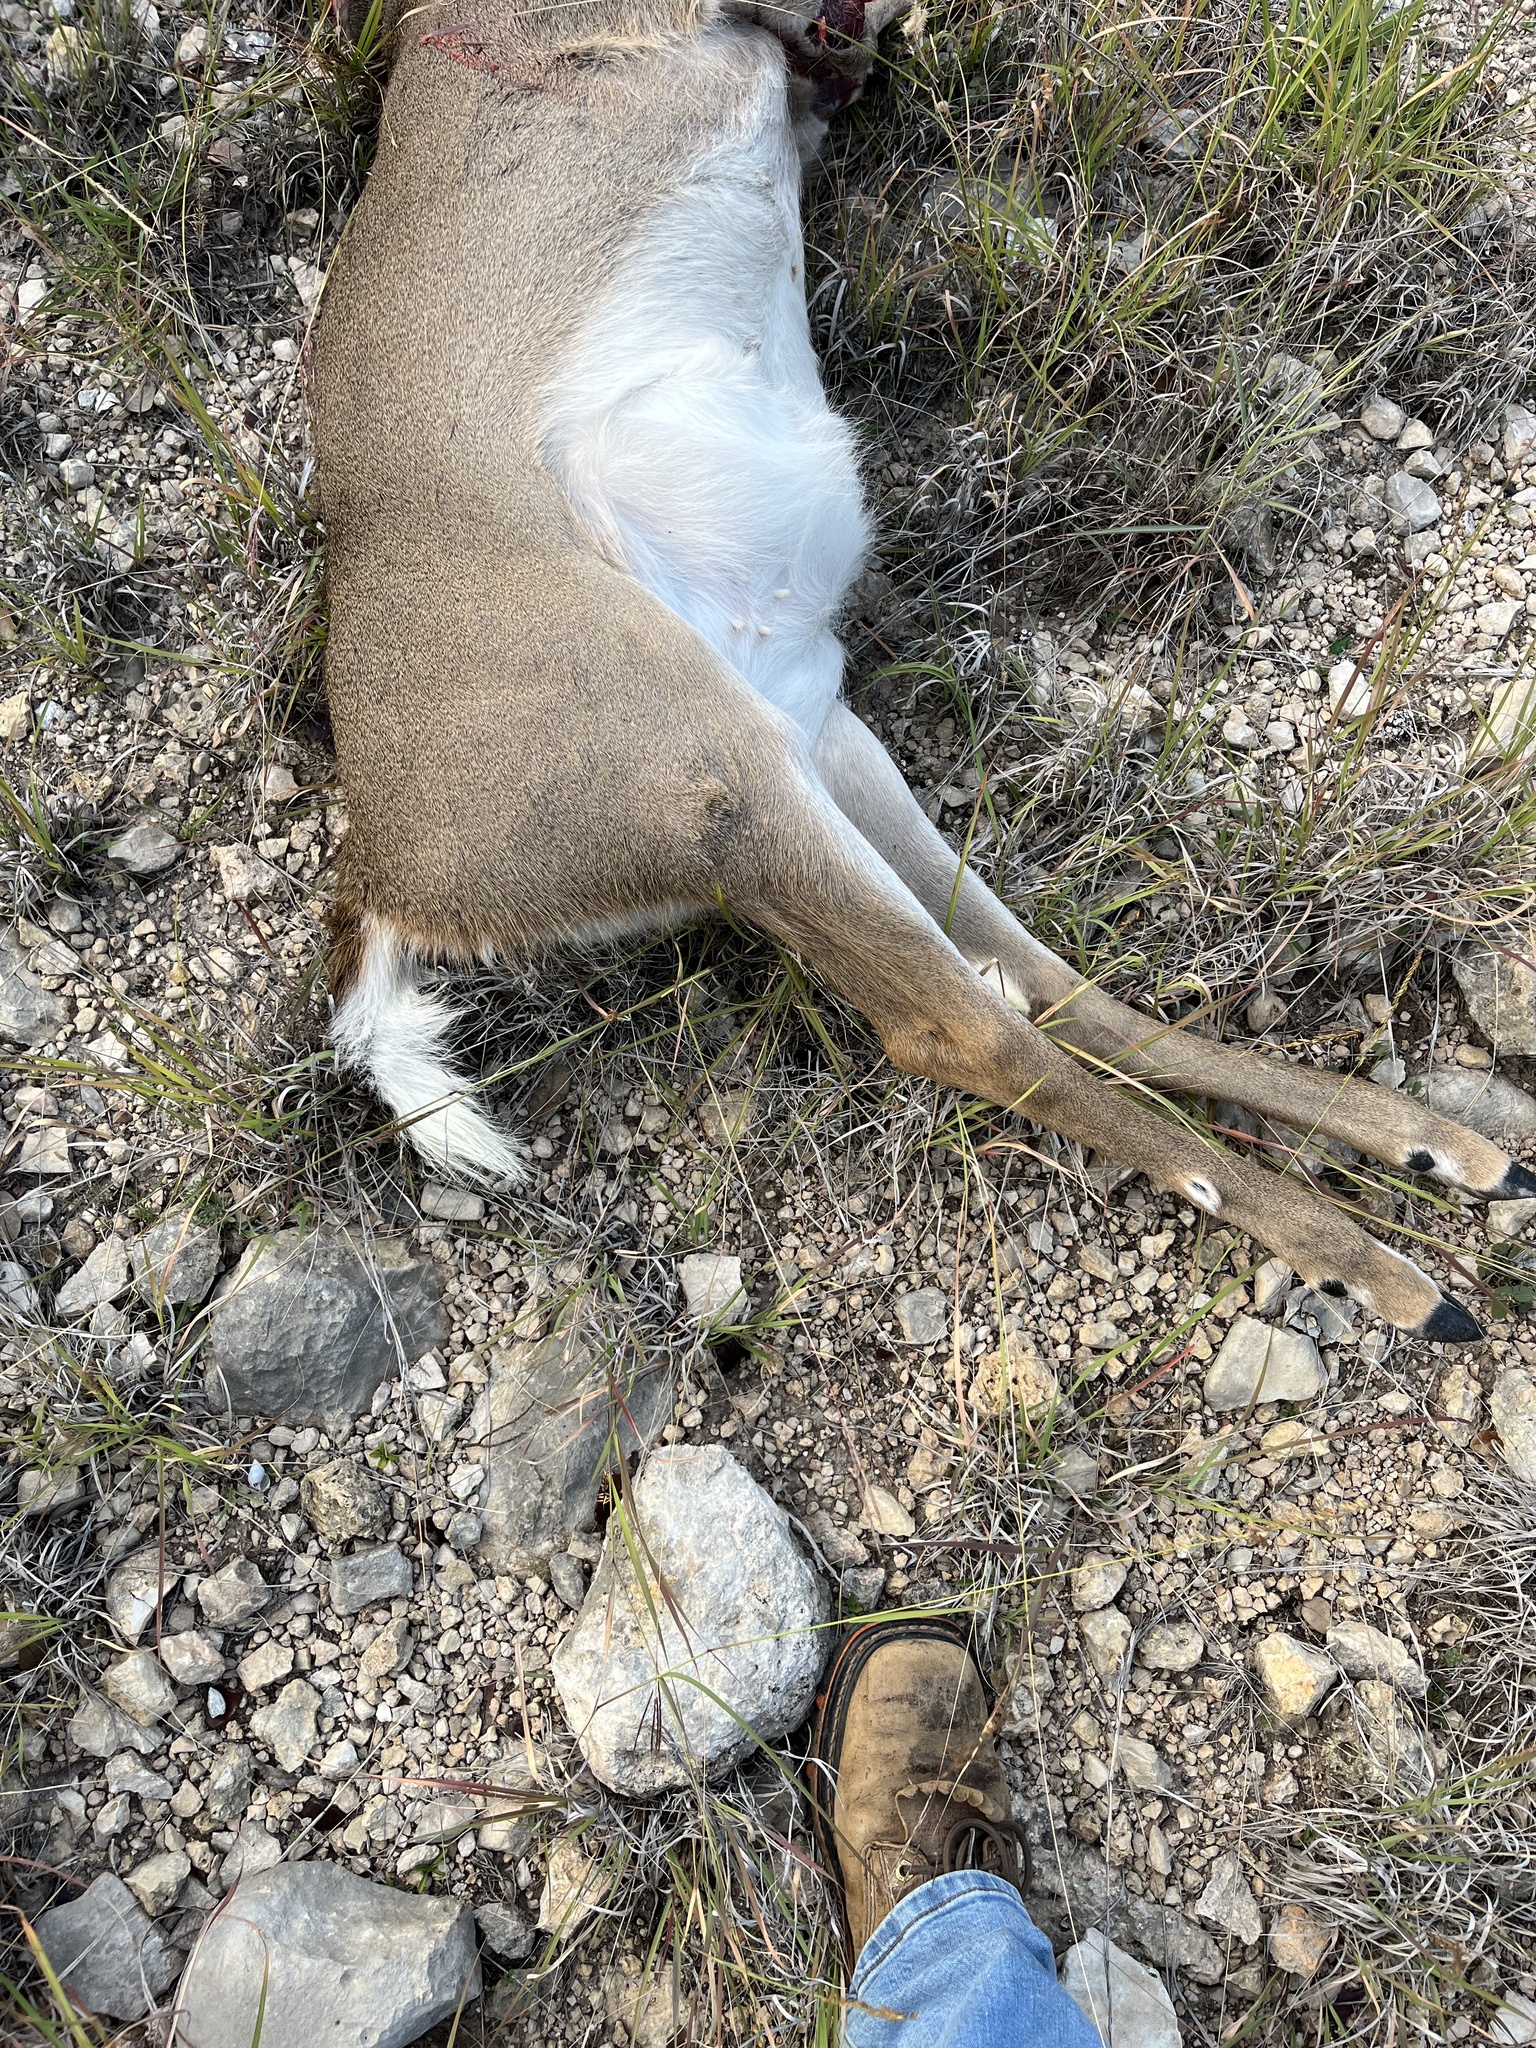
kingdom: Animalia
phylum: Chordata
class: Mammalia
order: Artiodactyla
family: Cervidae
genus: Odocoileus
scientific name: Odocoileus virginianus
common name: White-tailed deer
